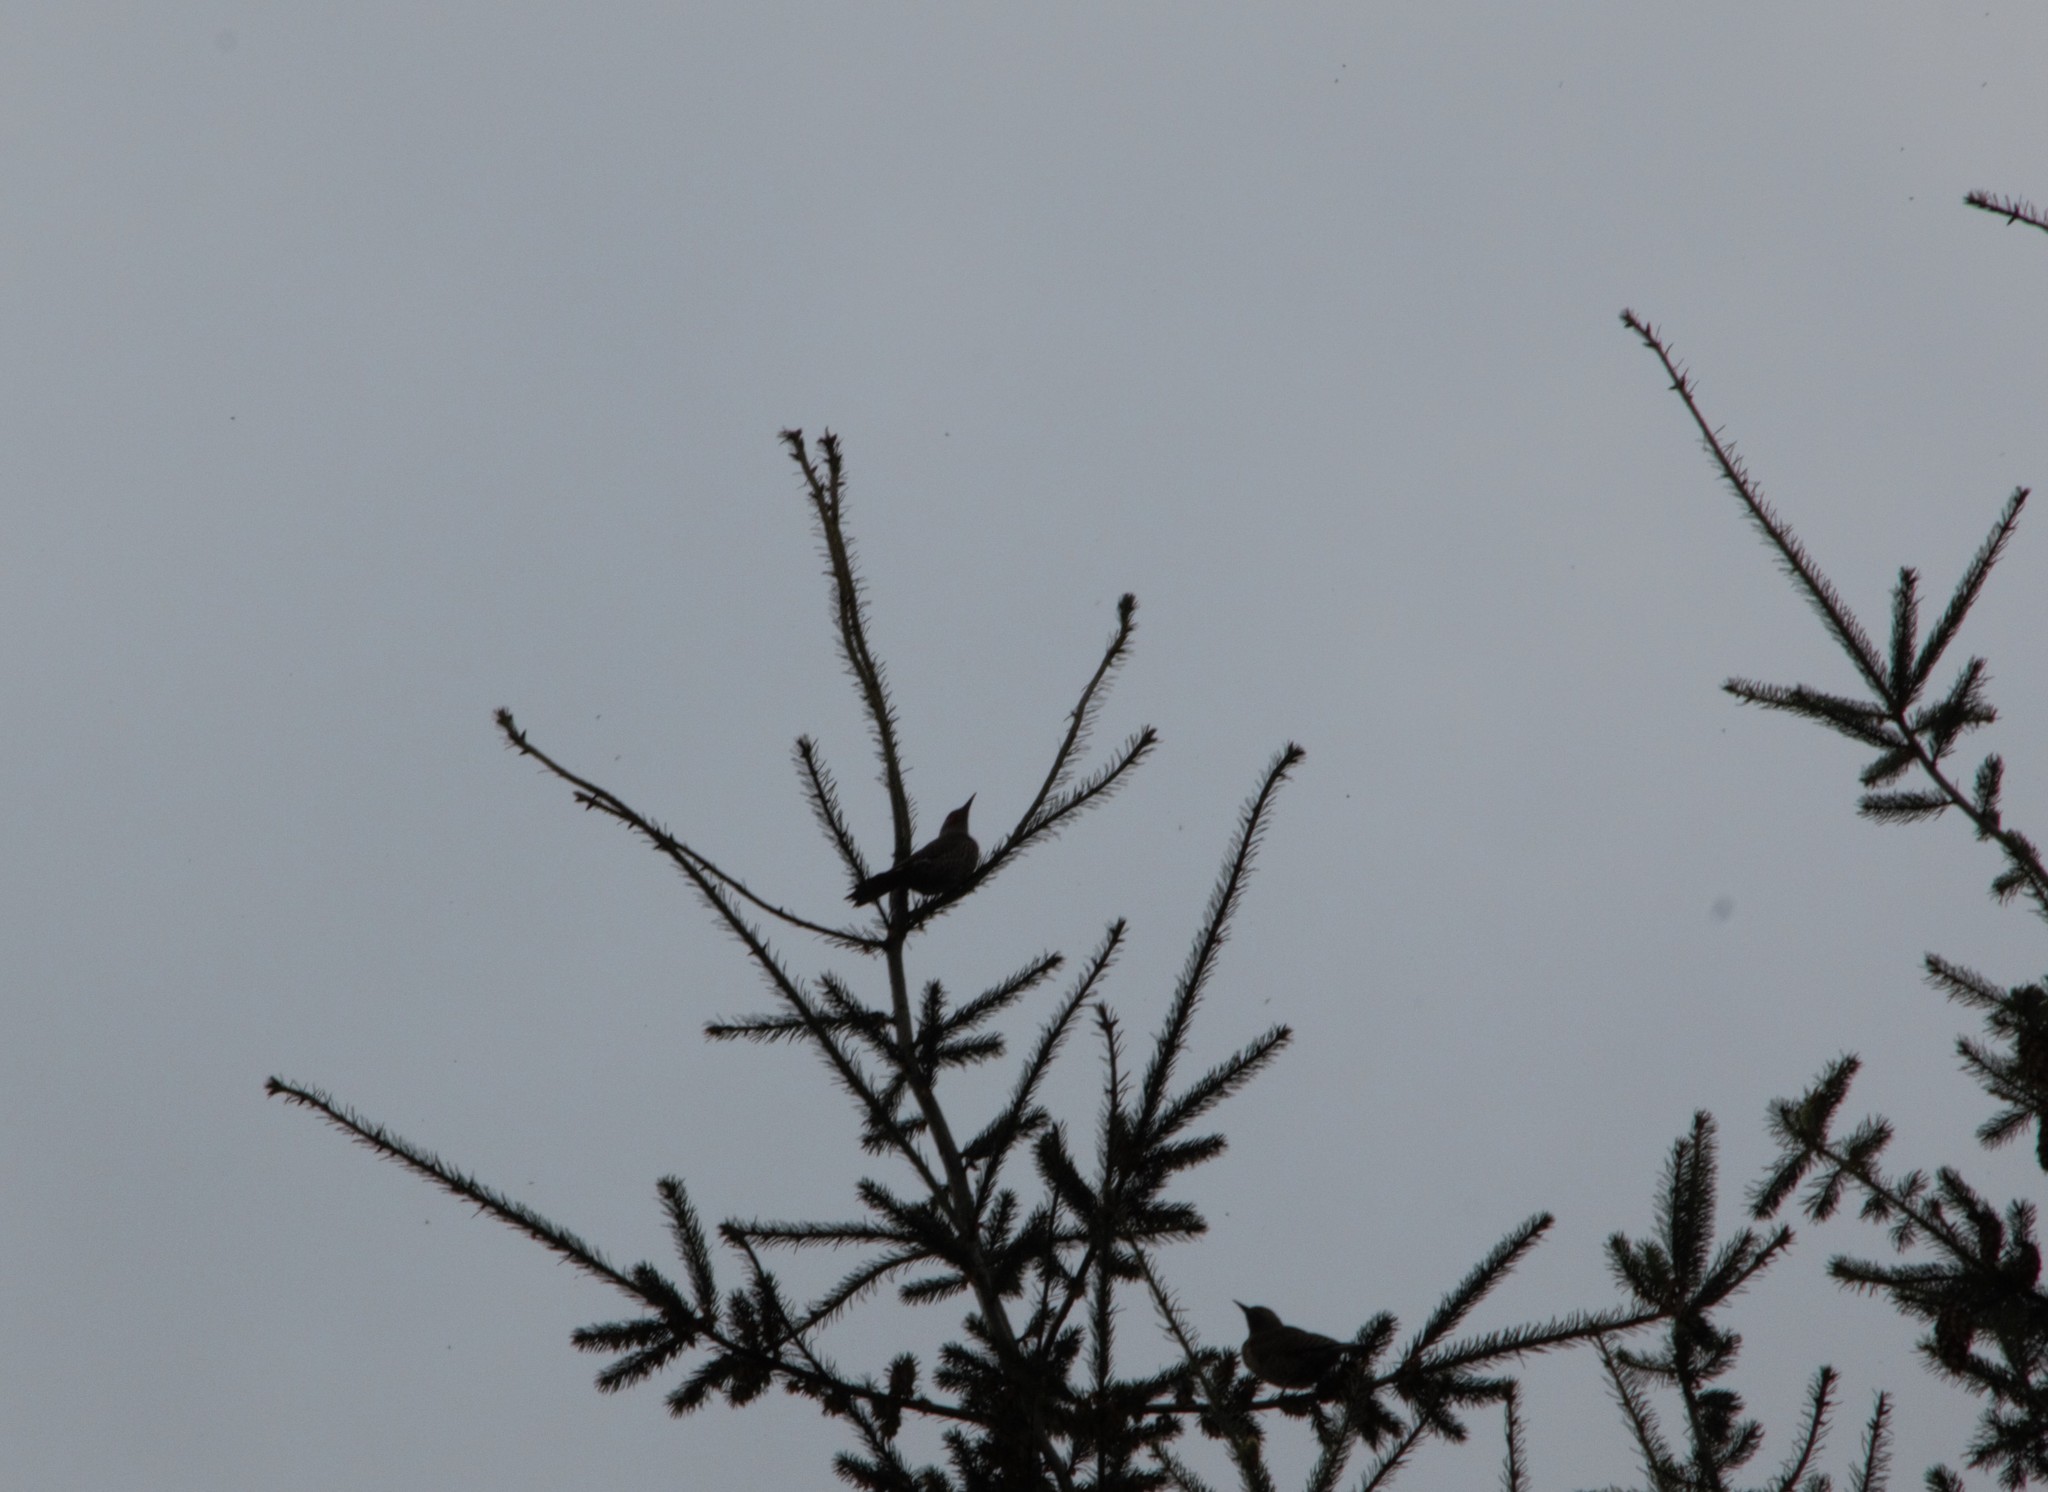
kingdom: Animalia
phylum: Chordata
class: Aves
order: Piciformes
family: Picidae
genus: Colaptes
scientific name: Colaptes auratus
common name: Northern flicker
